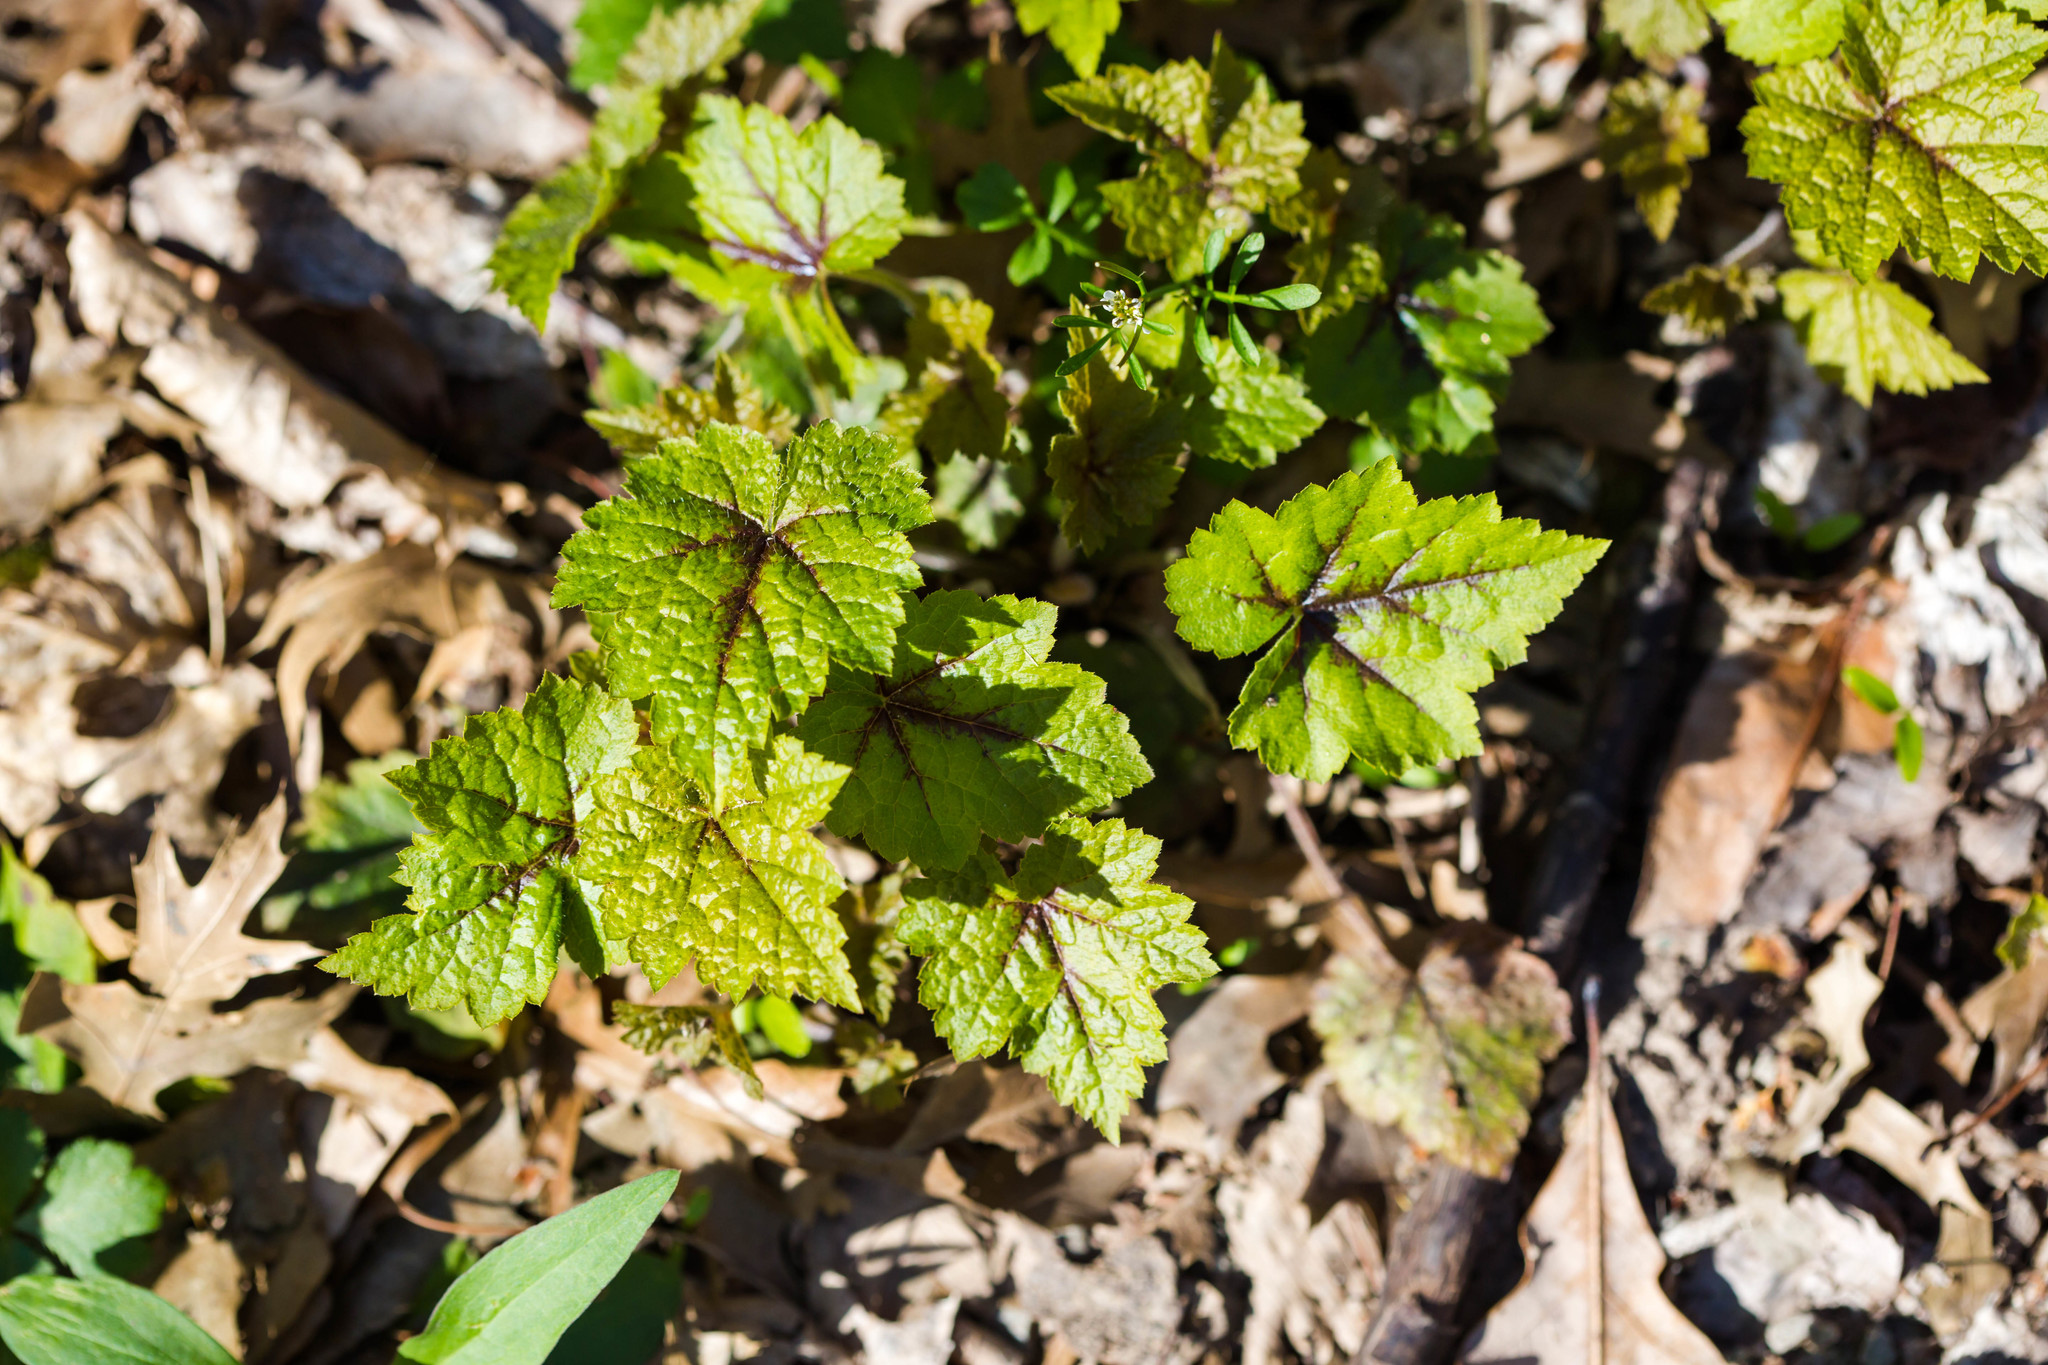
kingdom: Plantae
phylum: Tracheophyta
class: Magnoliopsida
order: Saxifragales
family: Saxifragaceae
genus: Tiarella
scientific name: Tiarella stolonifera
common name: Stoloniferous foamflower
